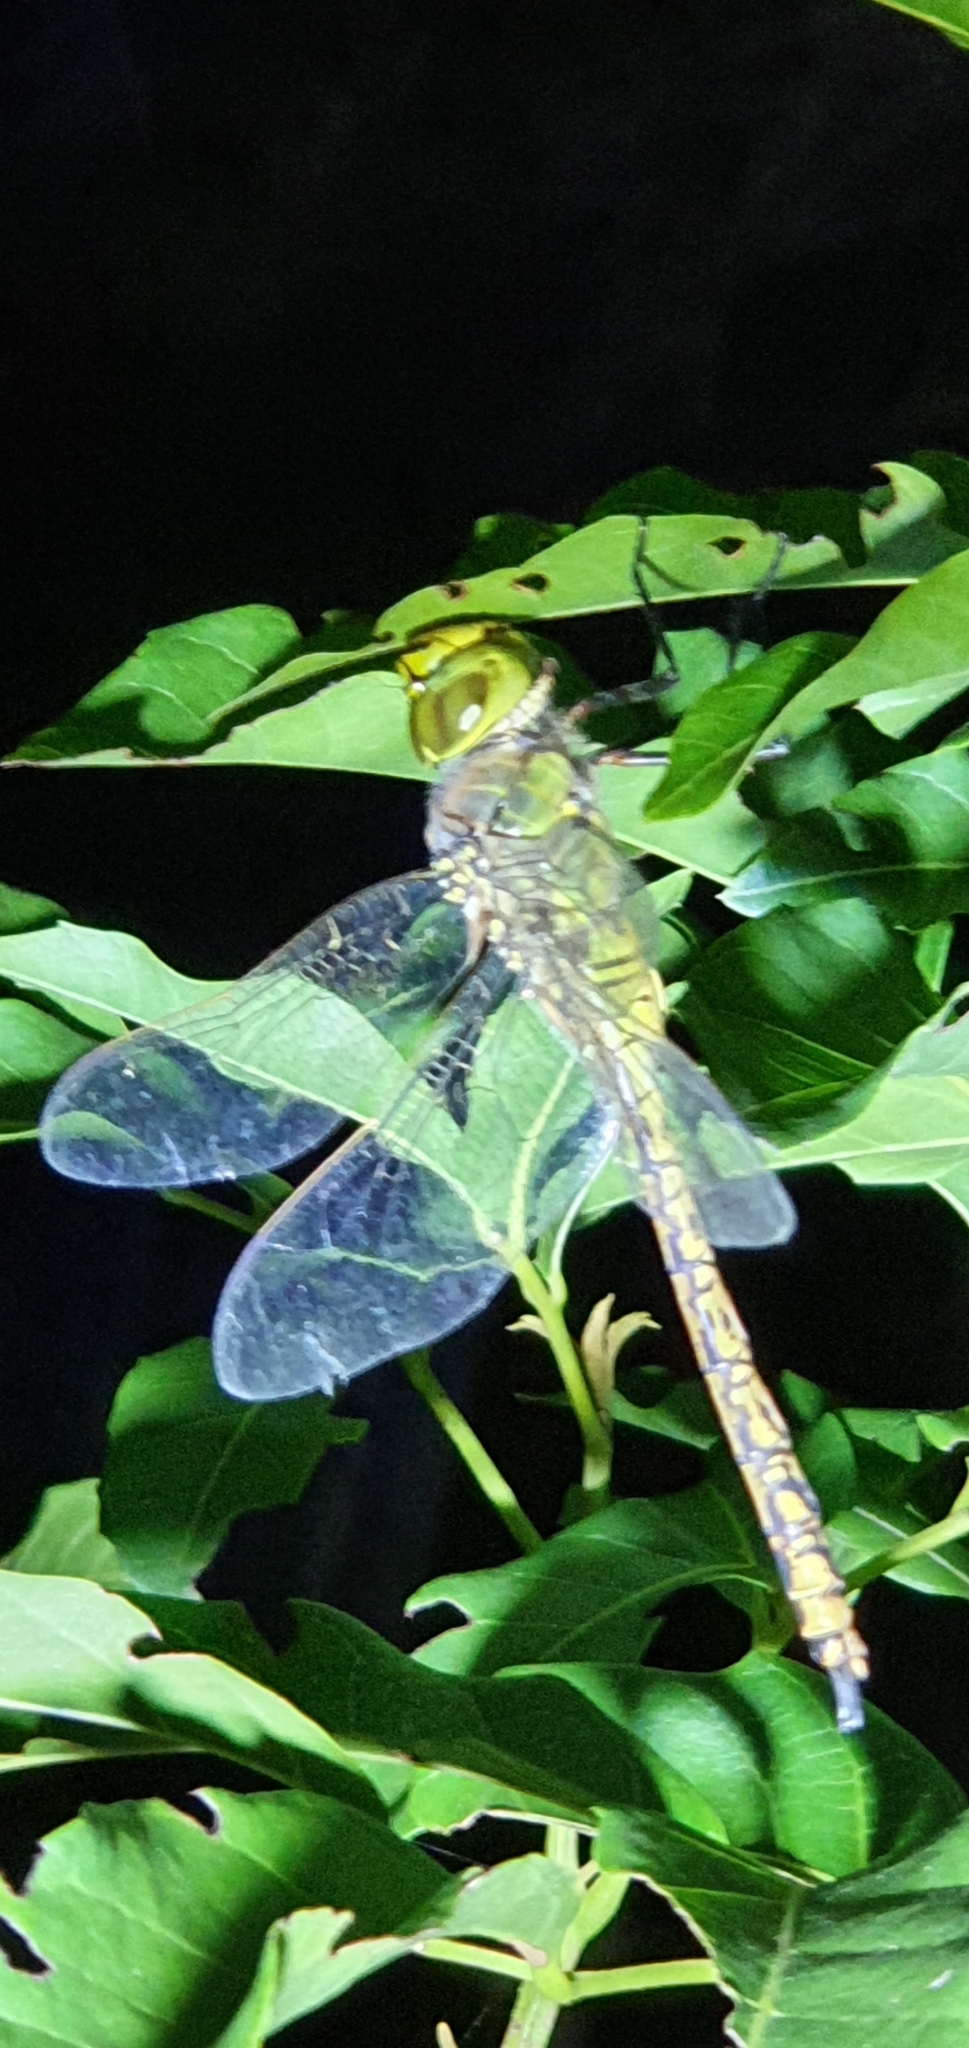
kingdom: Animalia
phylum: Arthropoda
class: Insecta
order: Odonata
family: Aeshnidae
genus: Anax
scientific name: Anax papuensis
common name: Australian emperor
